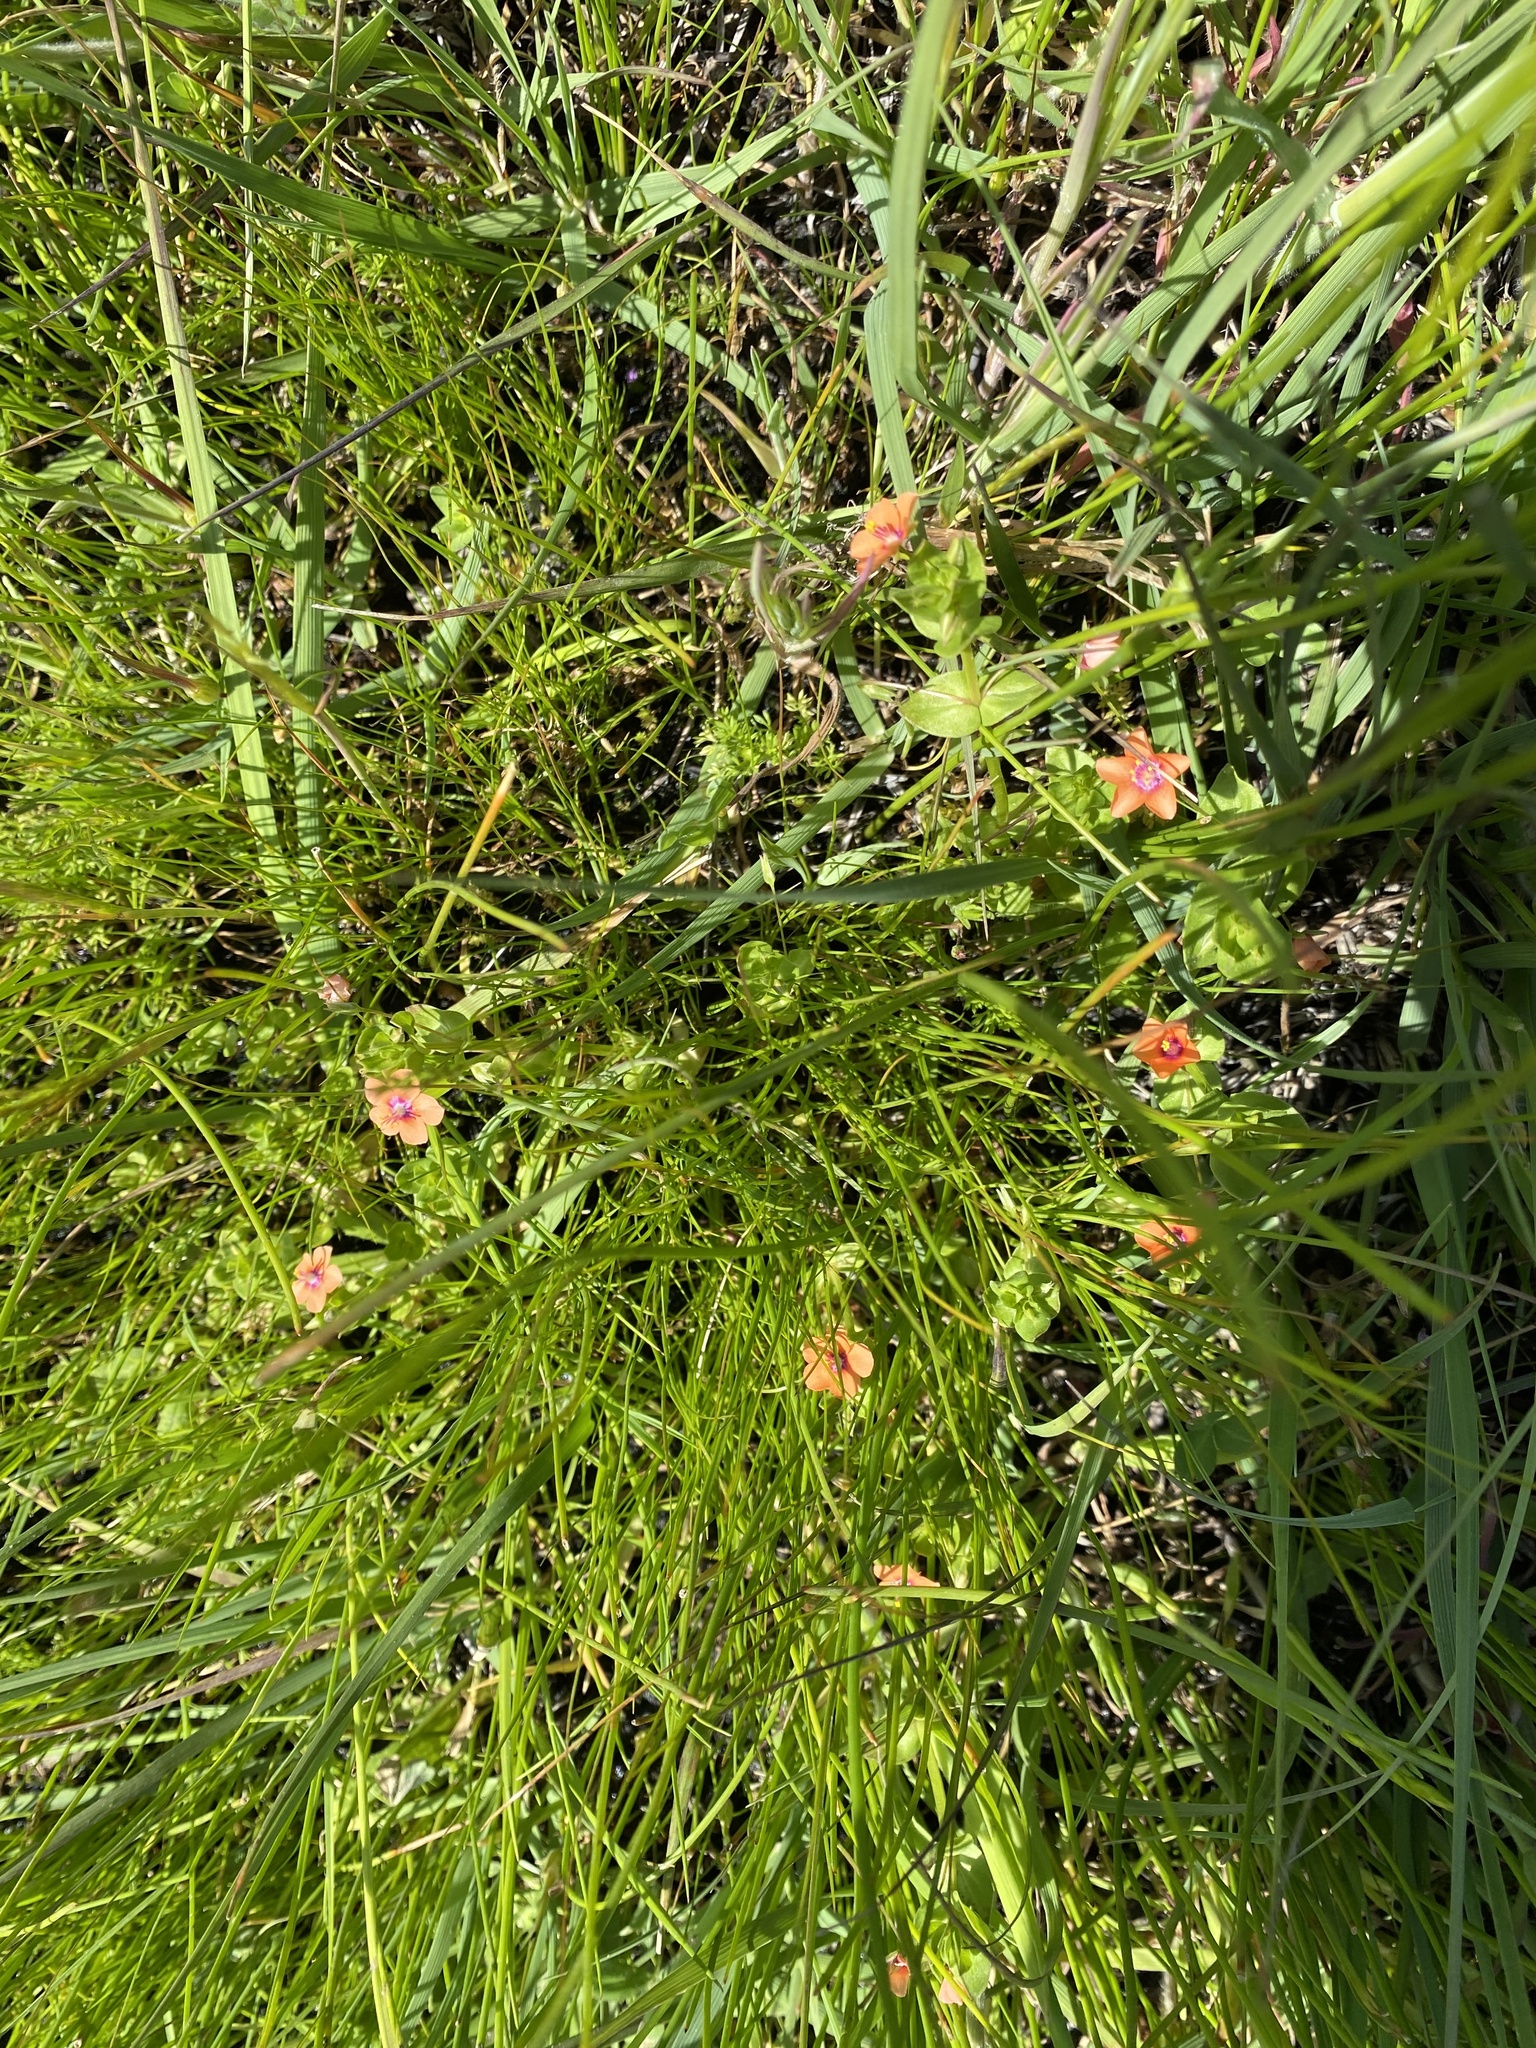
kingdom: Plantae
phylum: Tracheophyta
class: Magnoliopsida
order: Ericales
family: Primulaceae
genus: Lysimachia
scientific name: Lysimachia arvensis
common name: Scarlet pimpernel
